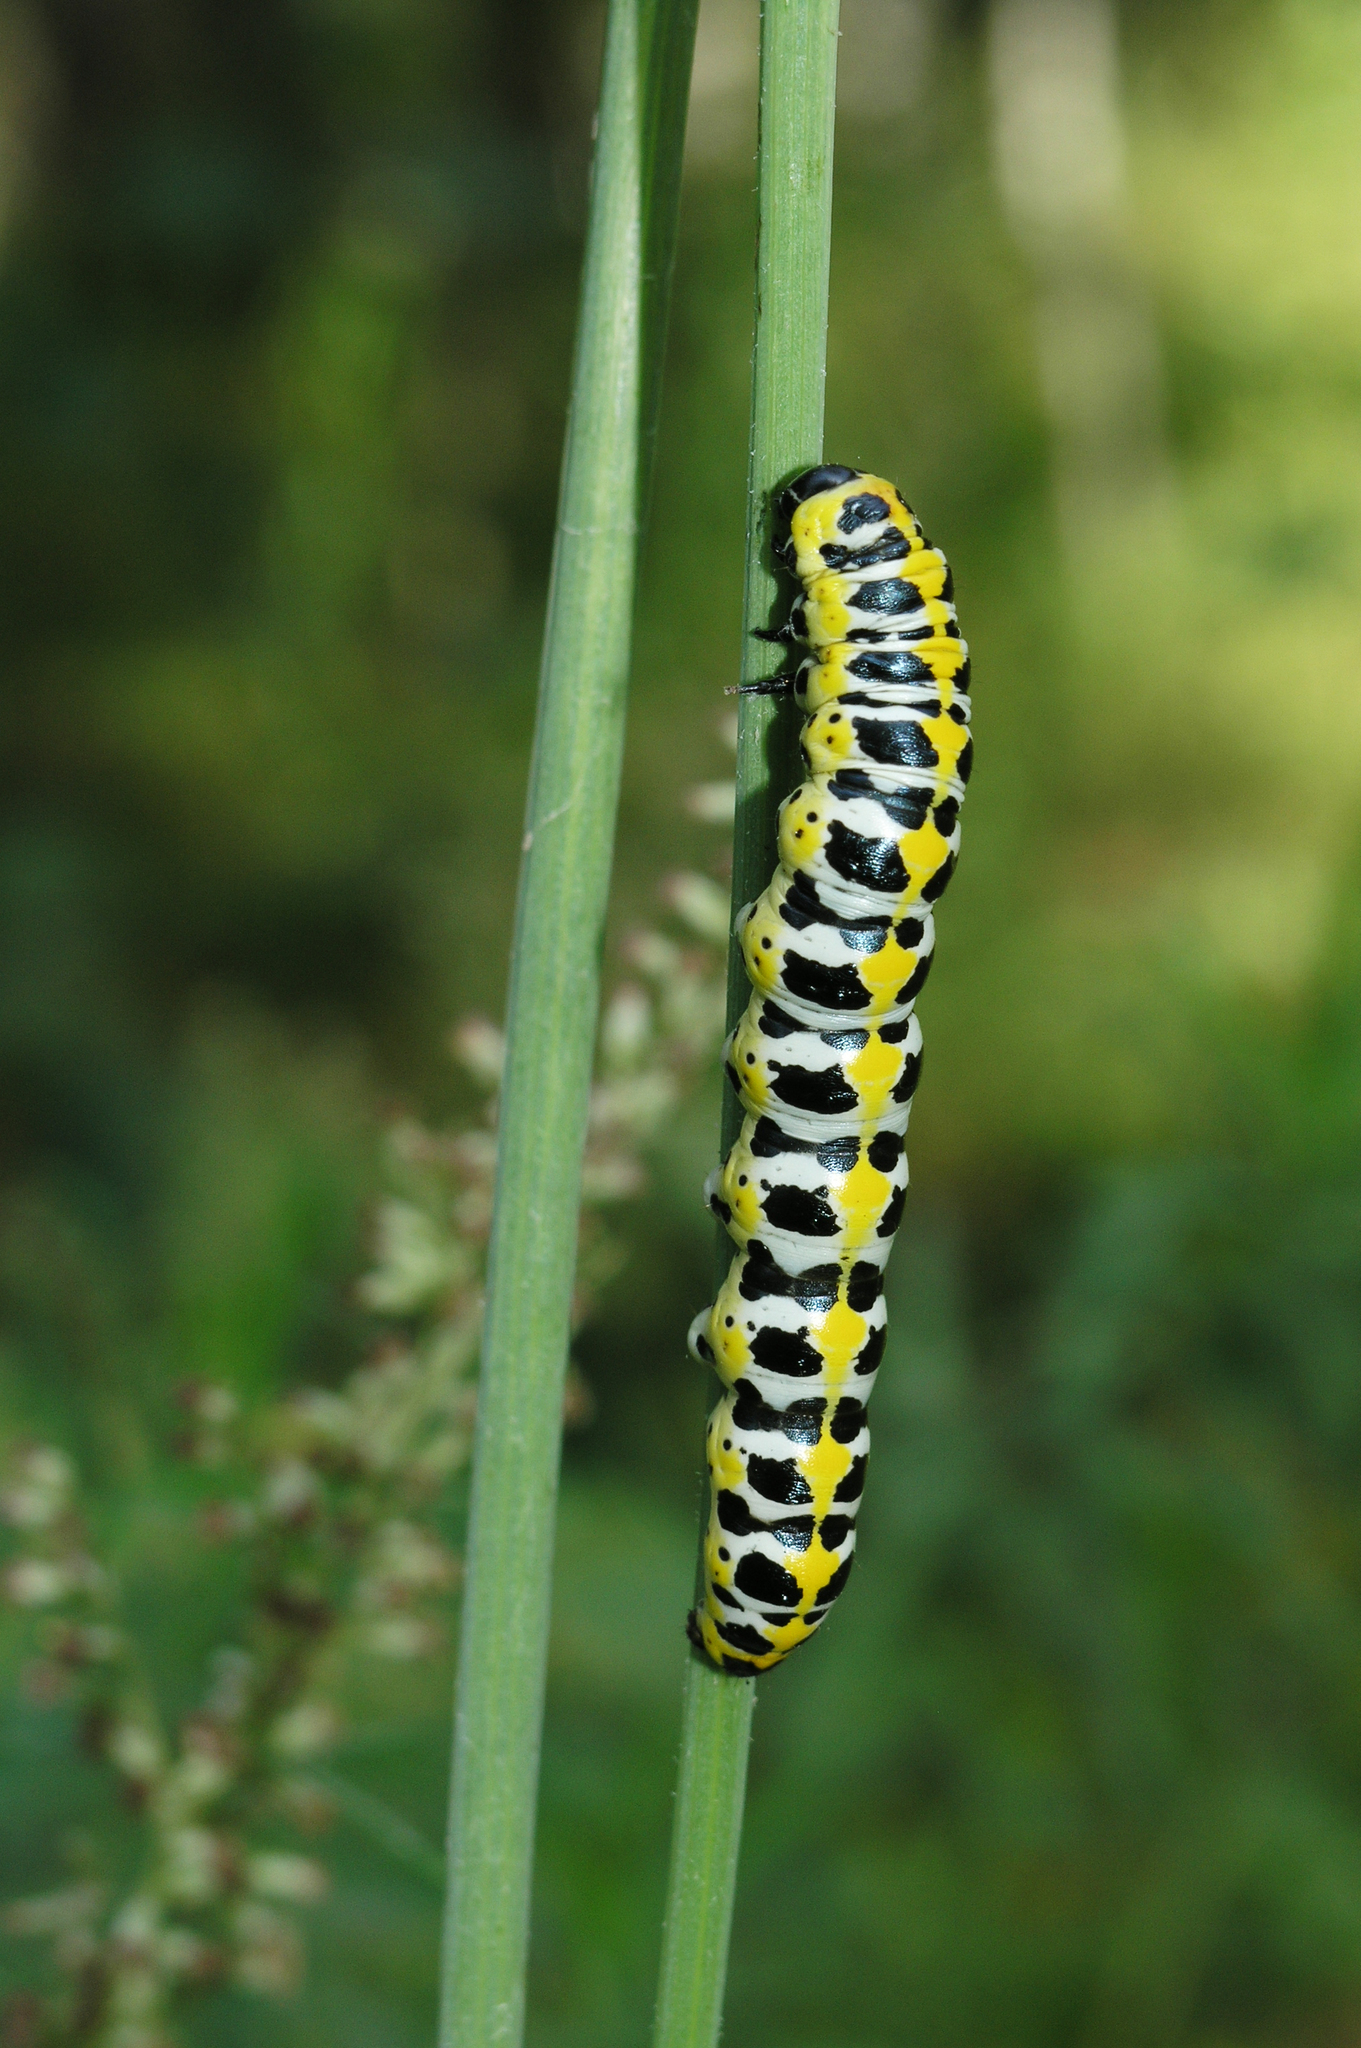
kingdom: Animalia
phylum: Arthropoda
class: Insecta
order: Lepidoptera
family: Noctuidae
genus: Cucullia
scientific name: Cucullia pustulata
